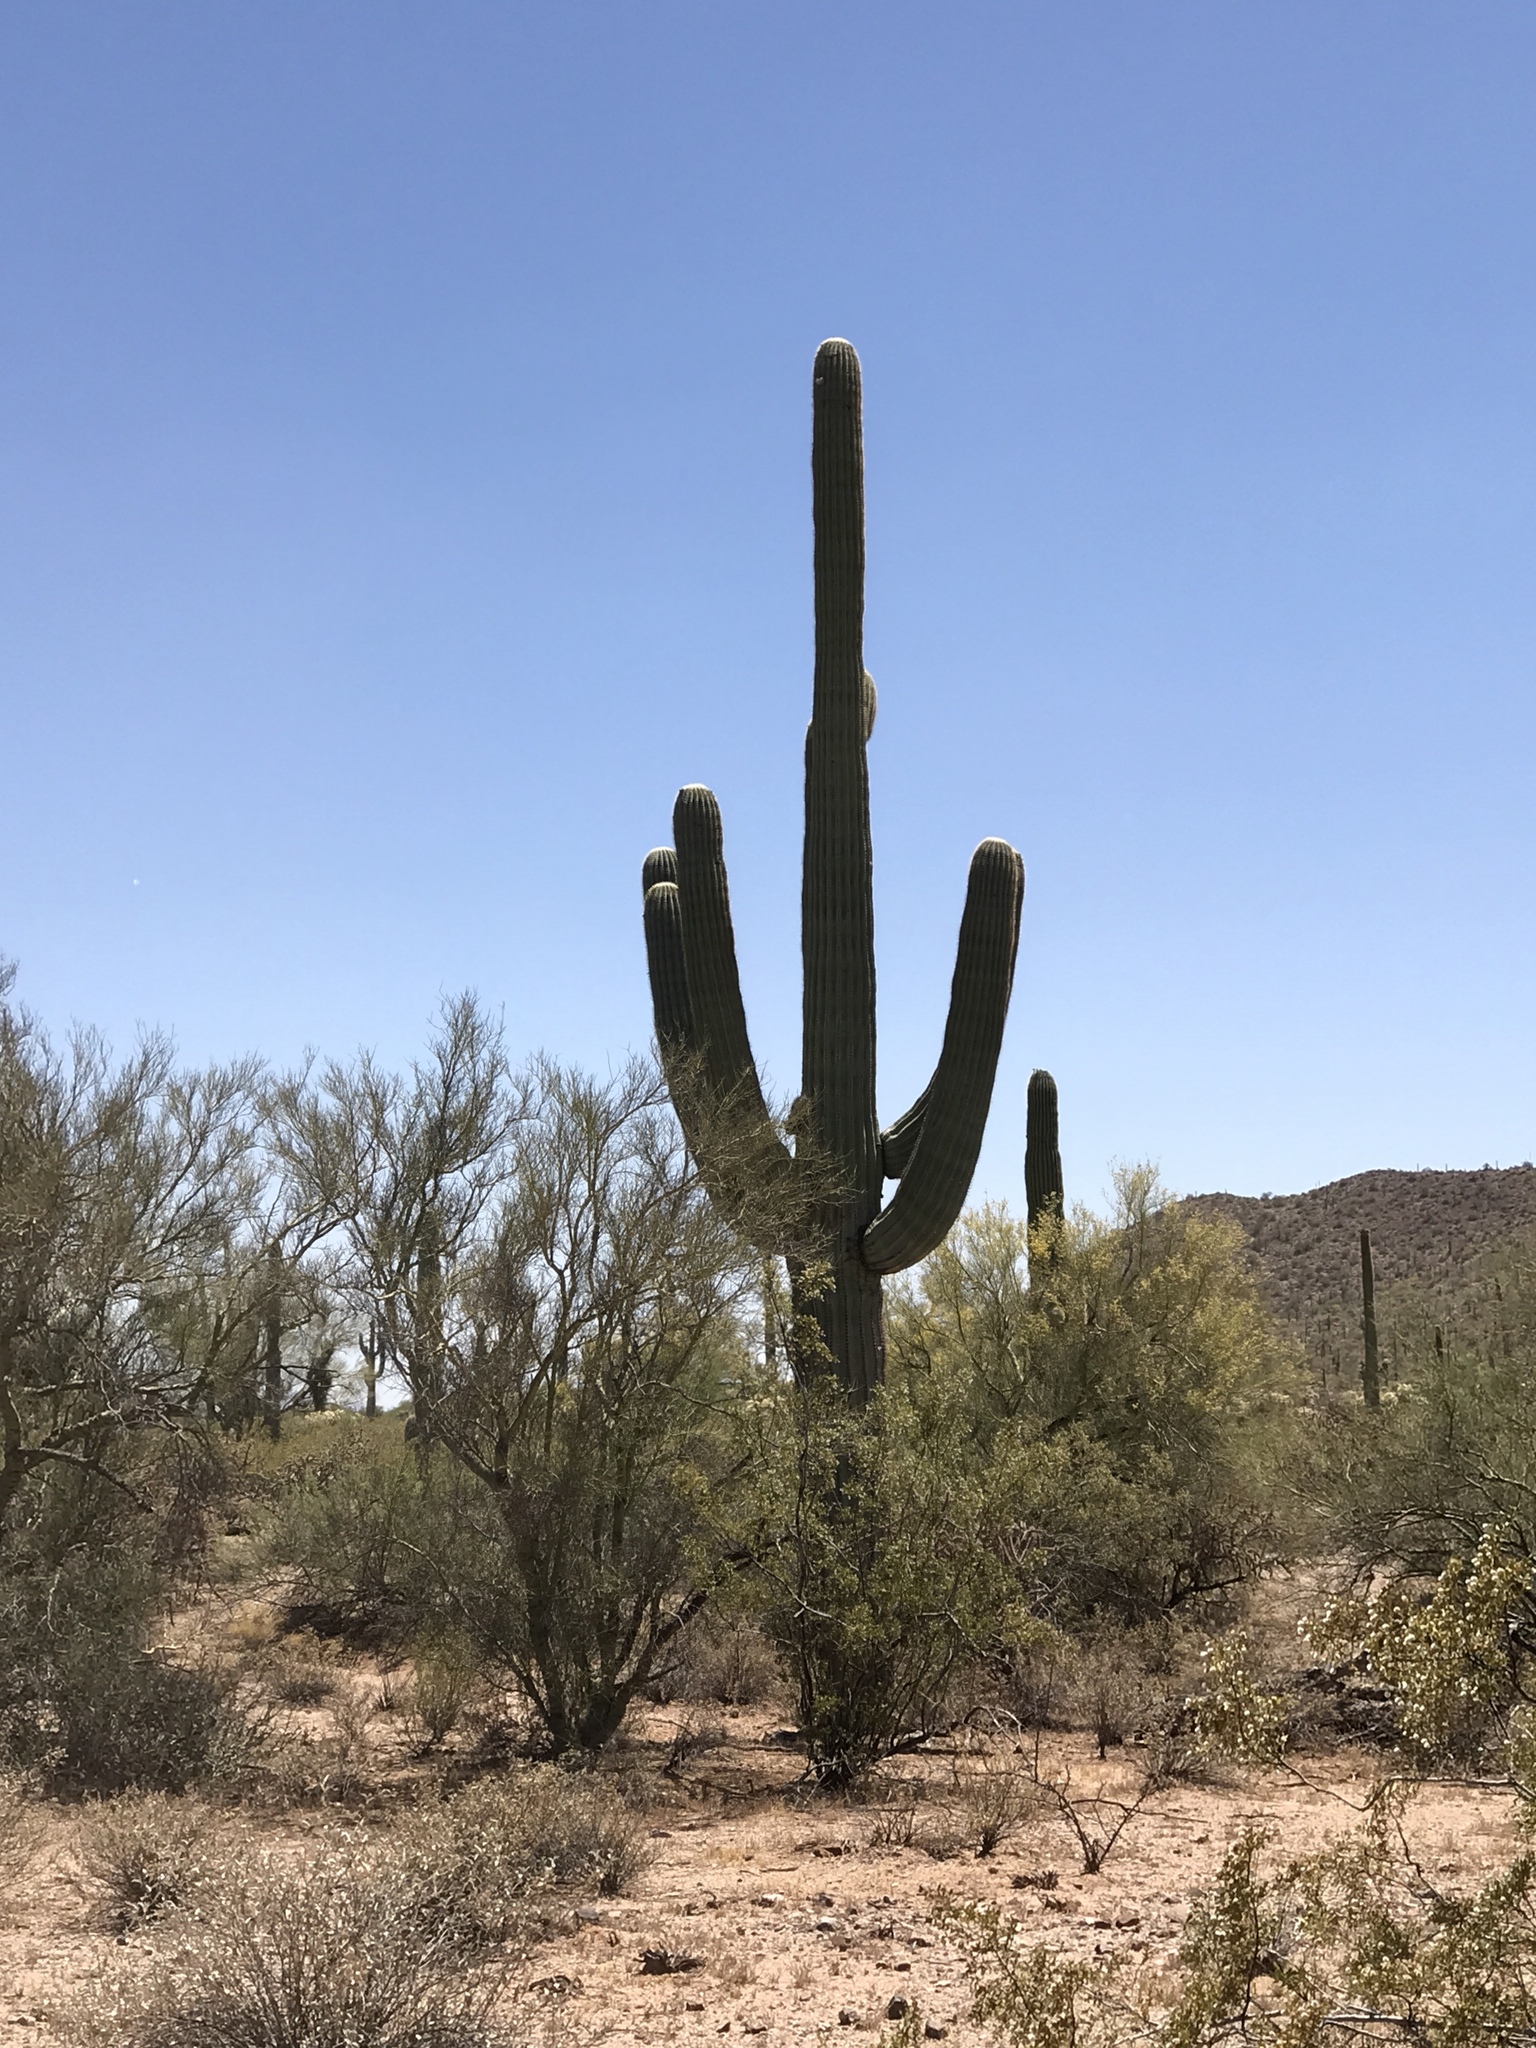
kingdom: Plantae
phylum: Tracheophyta
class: Magnoliopsida
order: Caryophyllales
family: Cactaceae
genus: Carnegiea
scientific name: Carnegiea gigantea
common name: Saguaro
